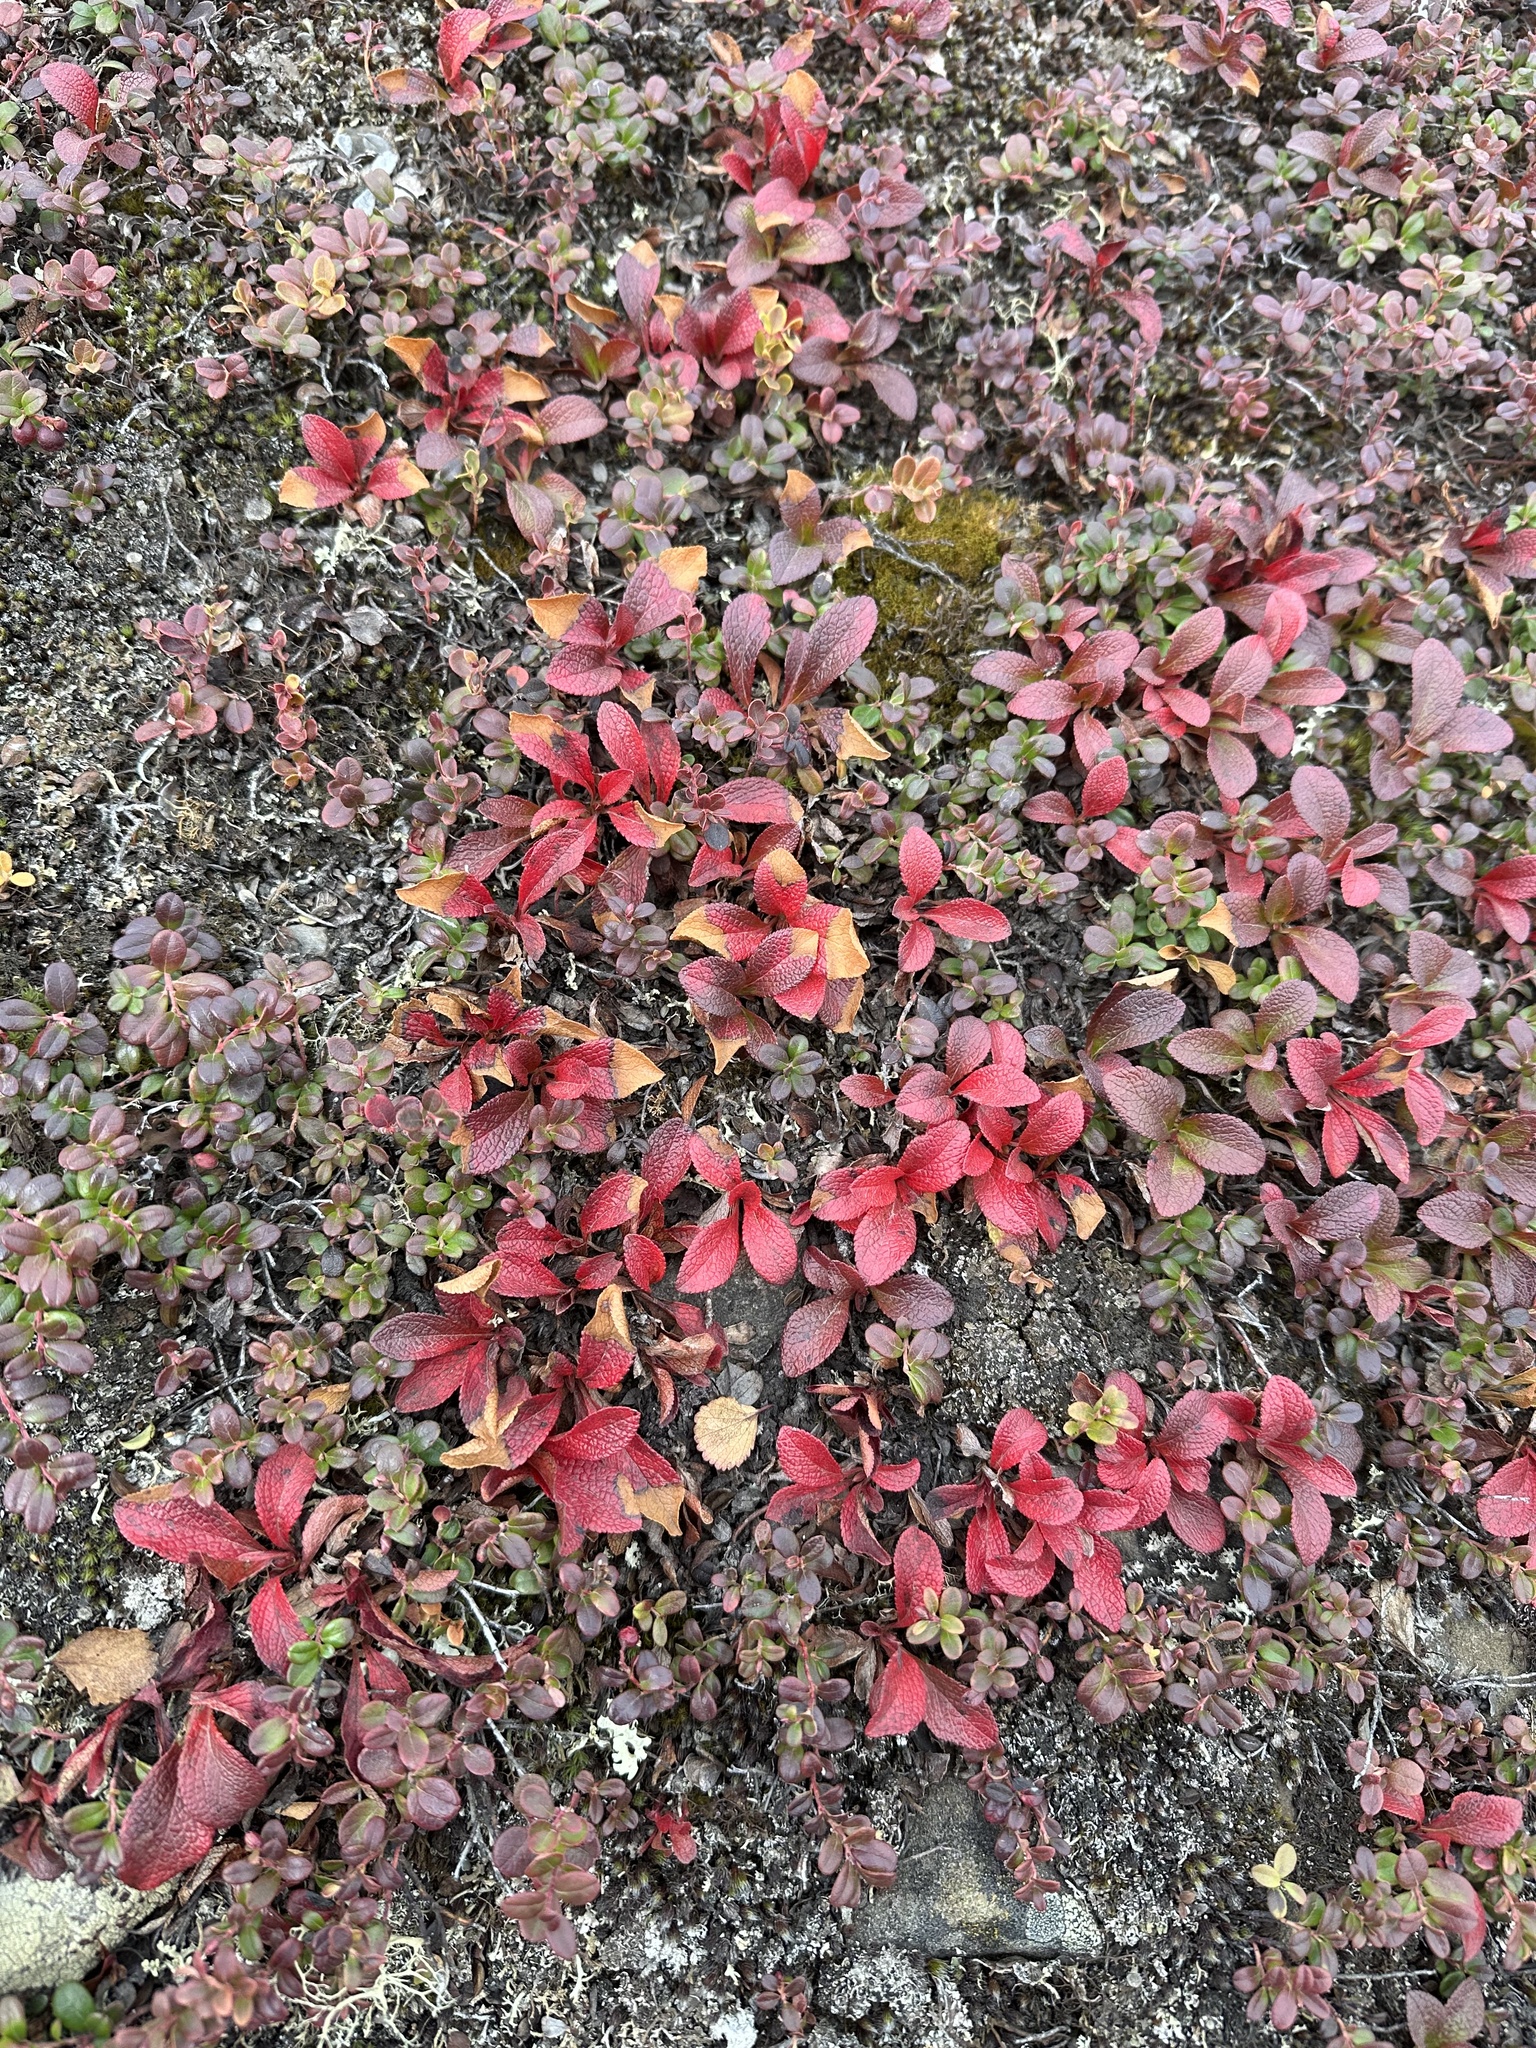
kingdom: Plantae
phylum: Tracheophyta
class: Magnoliopsida
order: Ericales
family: Ericaceae
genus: Arctostaphylos
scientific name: Arctostaphylos rubra
